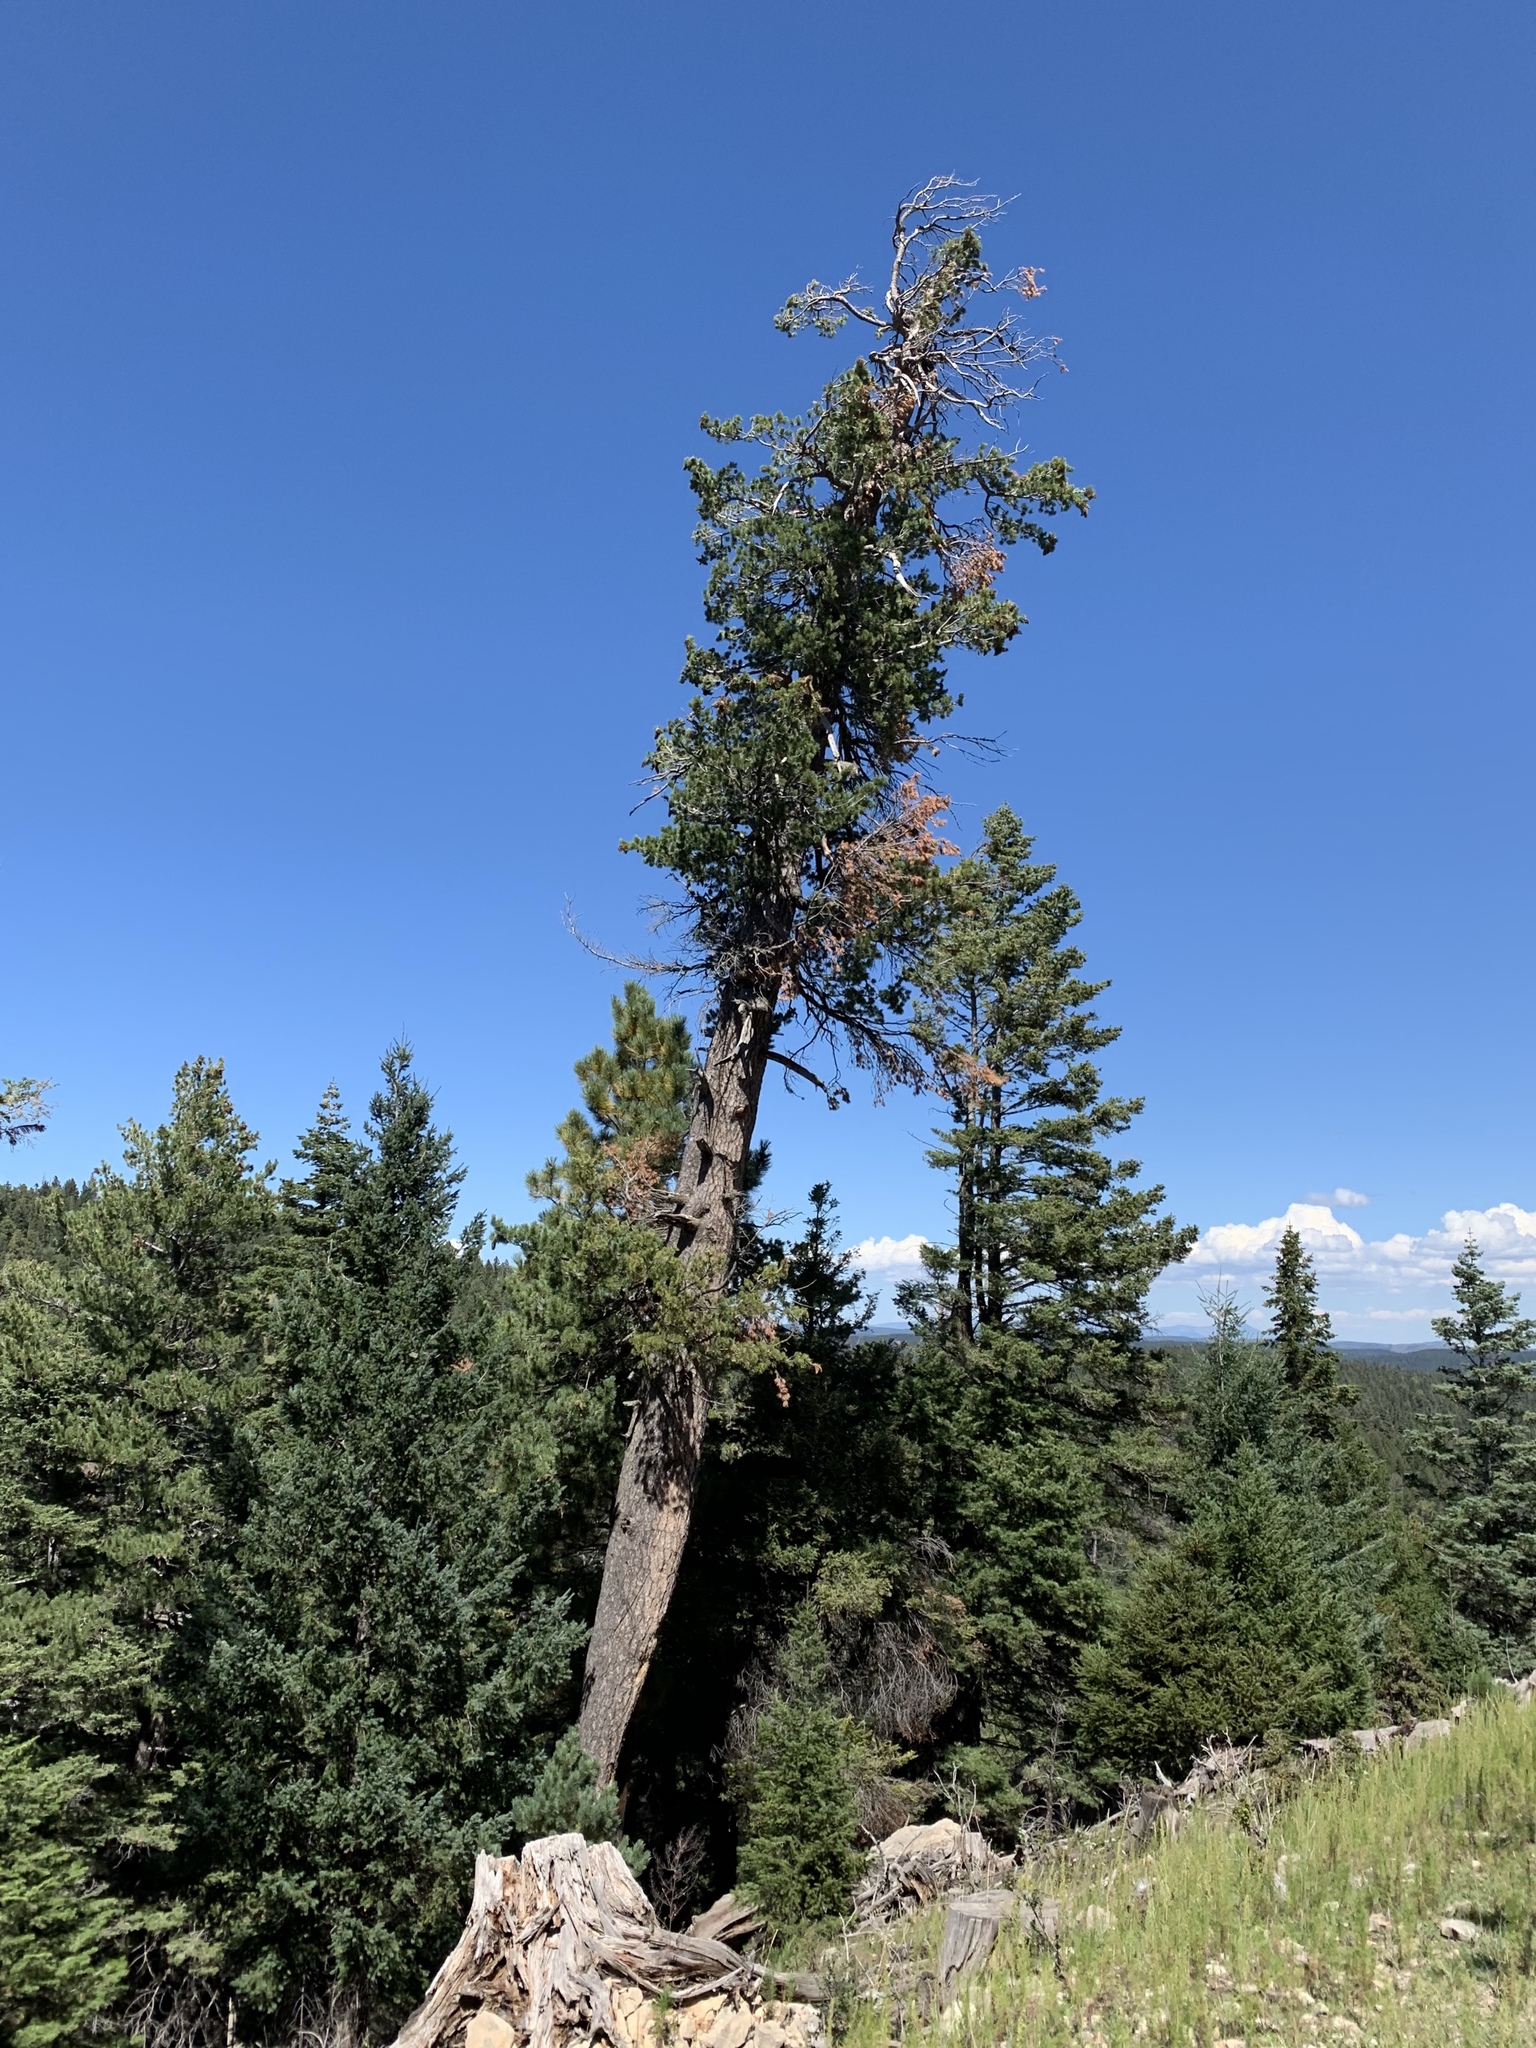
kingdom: Plantae
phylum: Tracheophyta
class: Pinopsida
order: Pinales
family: Pinaceae
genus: Pinus
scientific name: Pinus strobiformis
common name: Southwestern white pine
